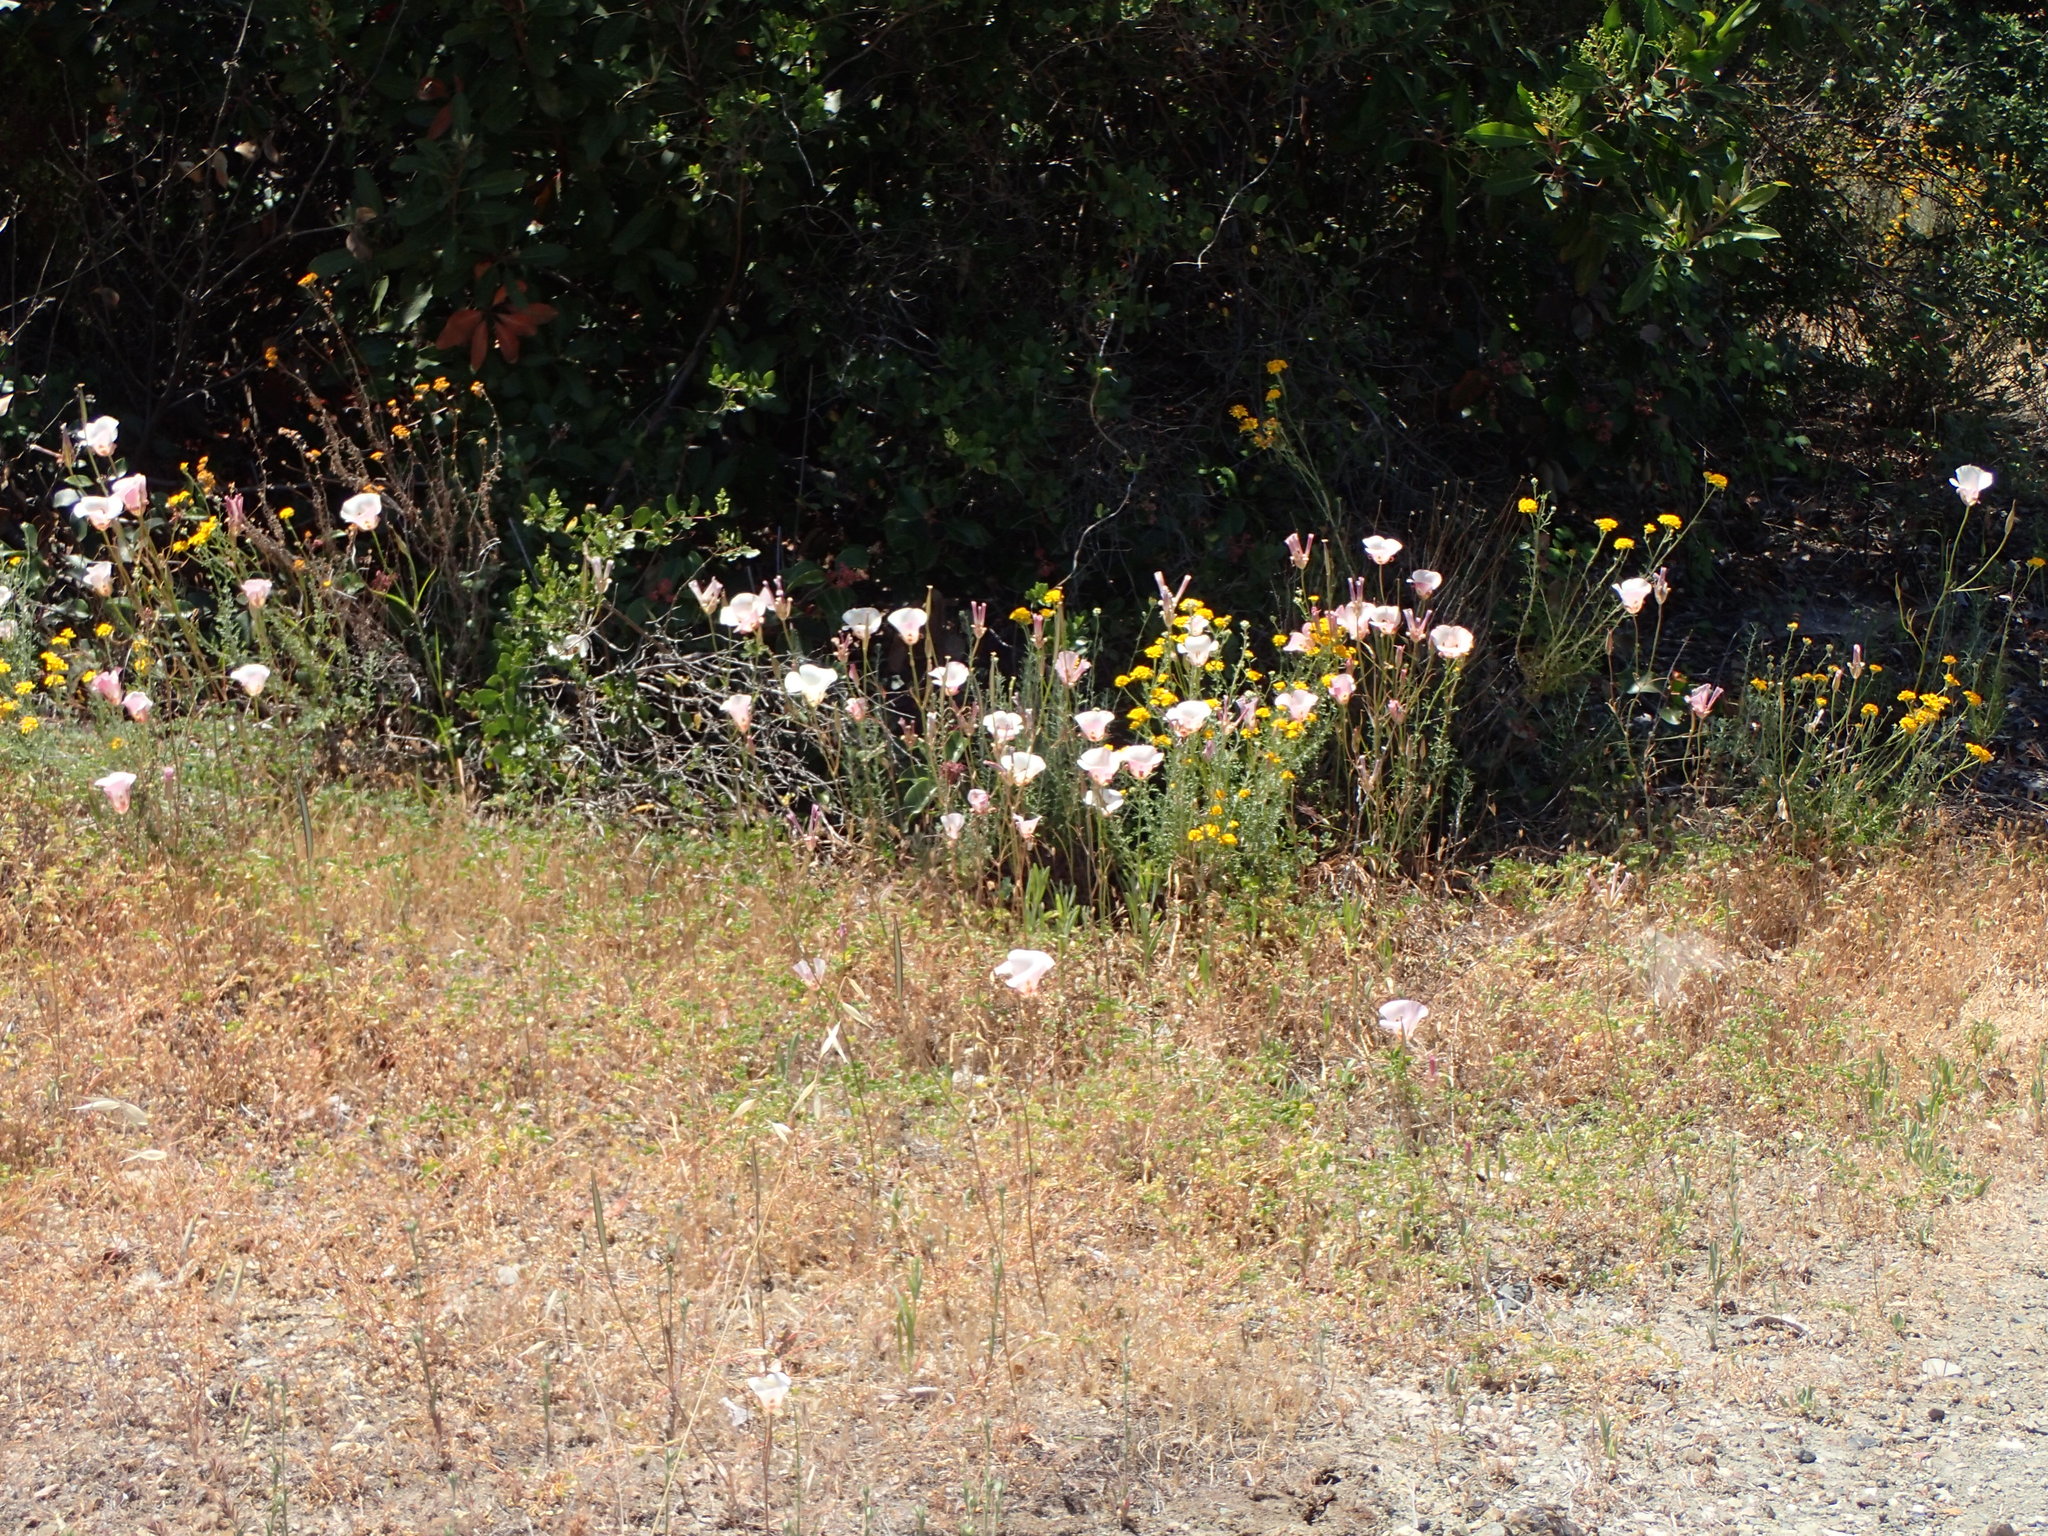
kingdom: Plantae
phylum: Tracheophyta
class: Liliopsida
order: Liliales
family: Liliaceae
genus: Calochortus
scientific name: Calochortus venustus
